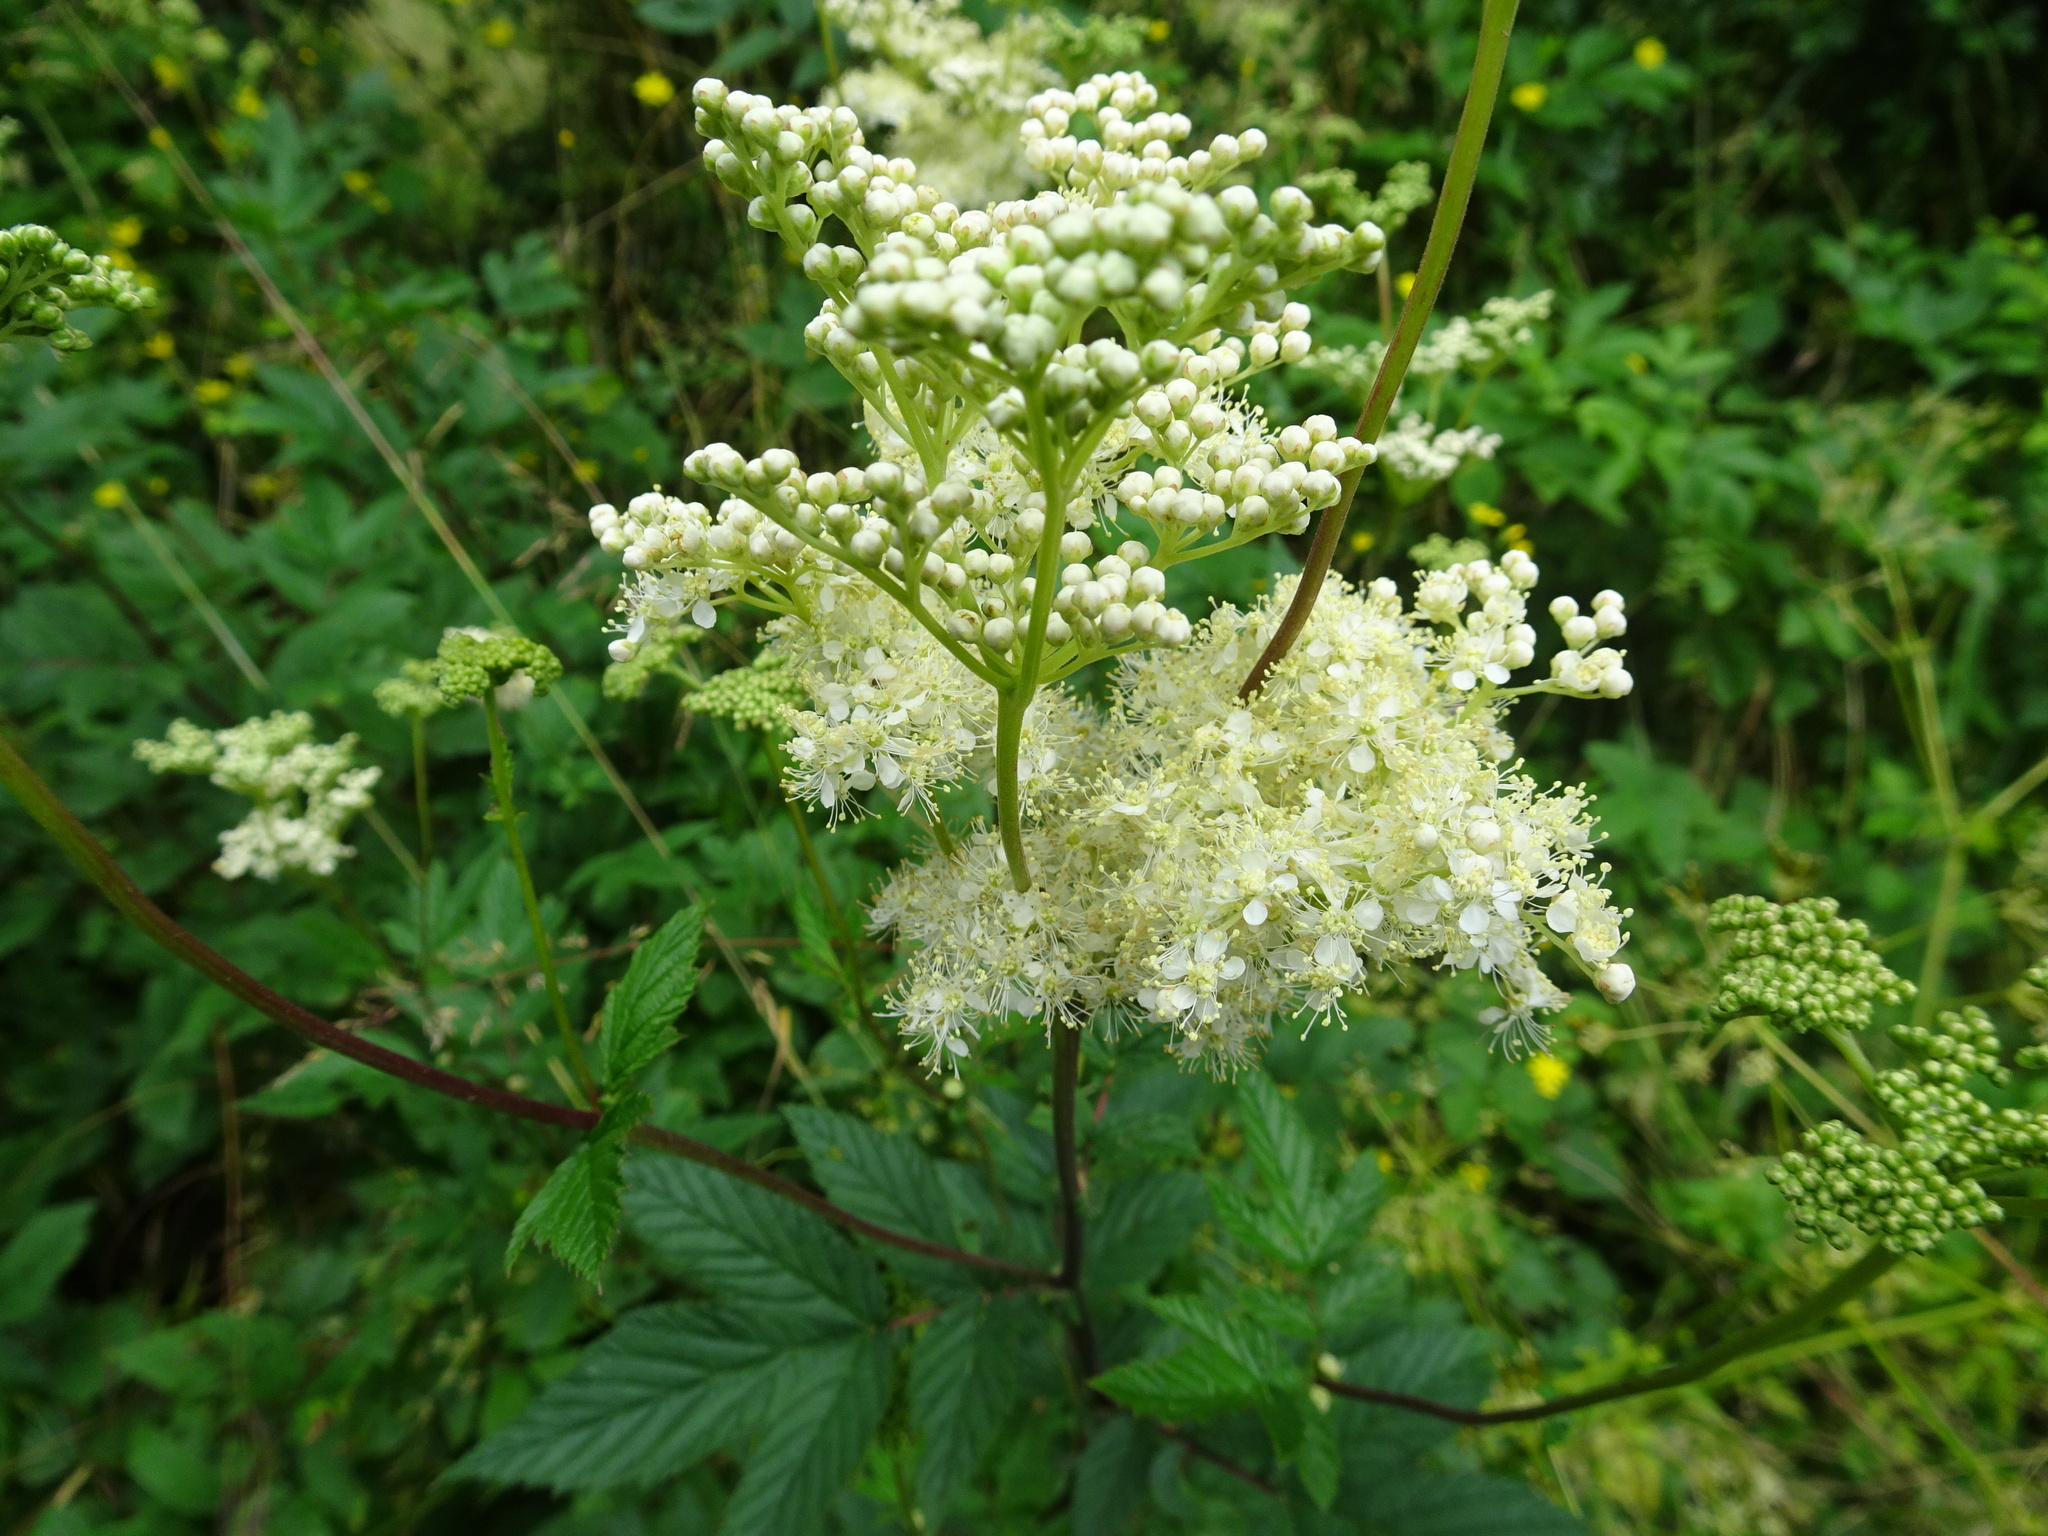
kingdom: Plantae
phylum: Tracheophyta
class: Magnoliopsida
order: Rosales
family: Rosaceae
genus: Filipendula
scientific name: Filipendula ulmaria
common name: Meadowsweet
